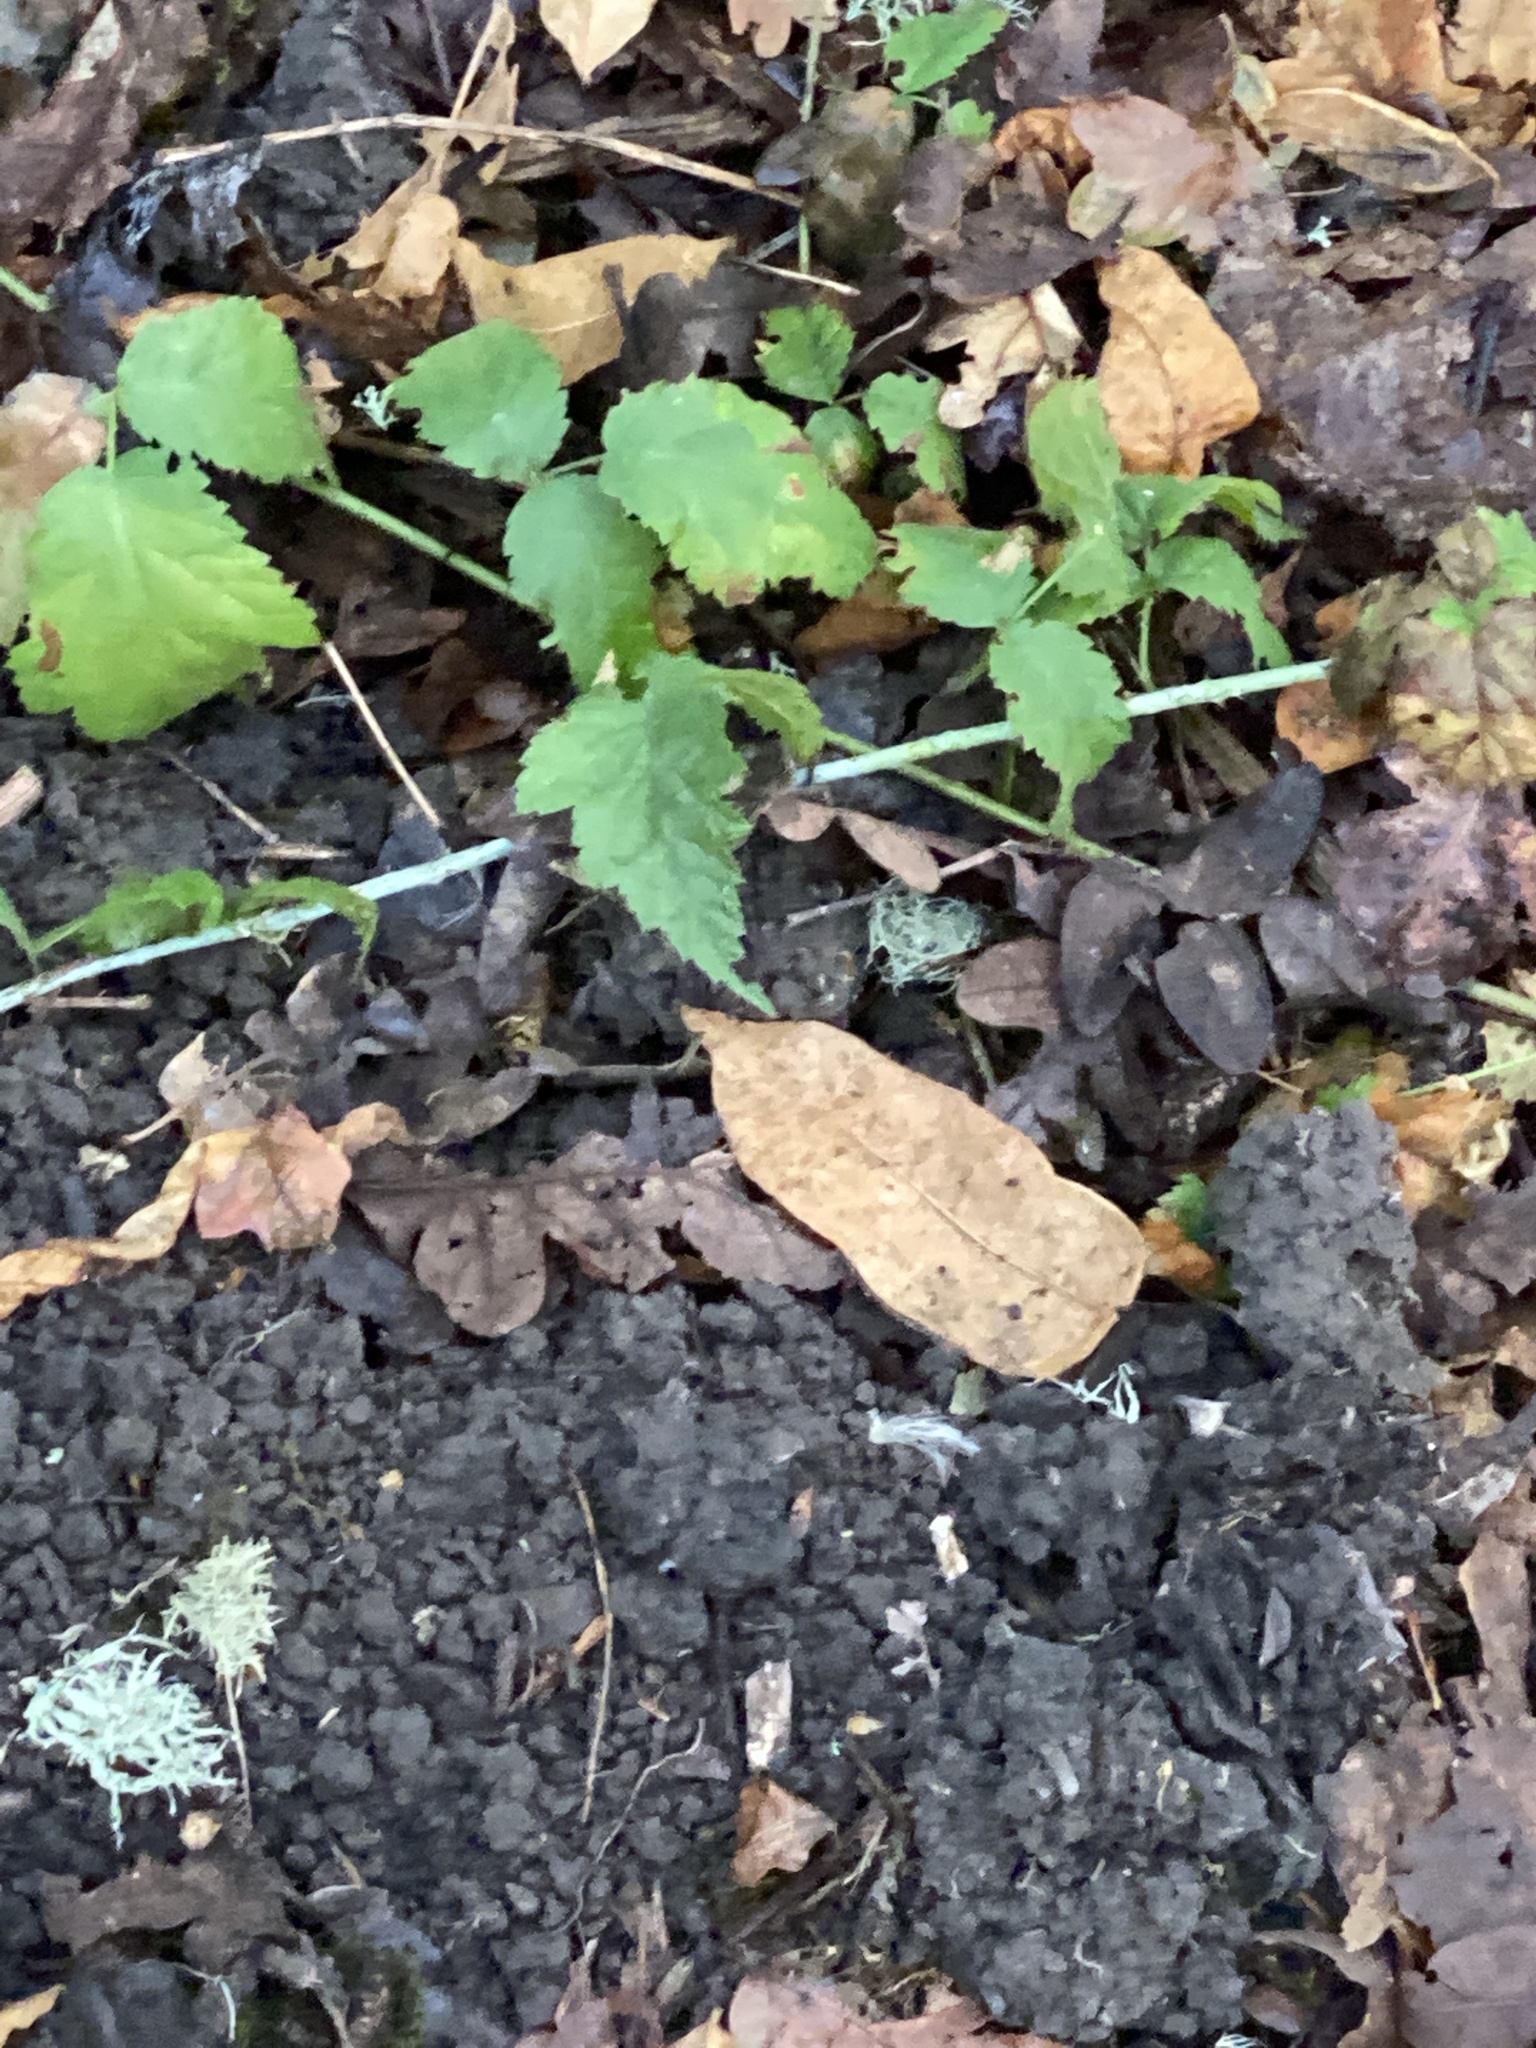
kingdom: Plantae
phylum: Tracheophyta
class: Magnoliopsida
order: Rosales
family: Rosaceae
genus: Rubus
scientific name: Rubus ursinus
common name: Pacific blackberry
